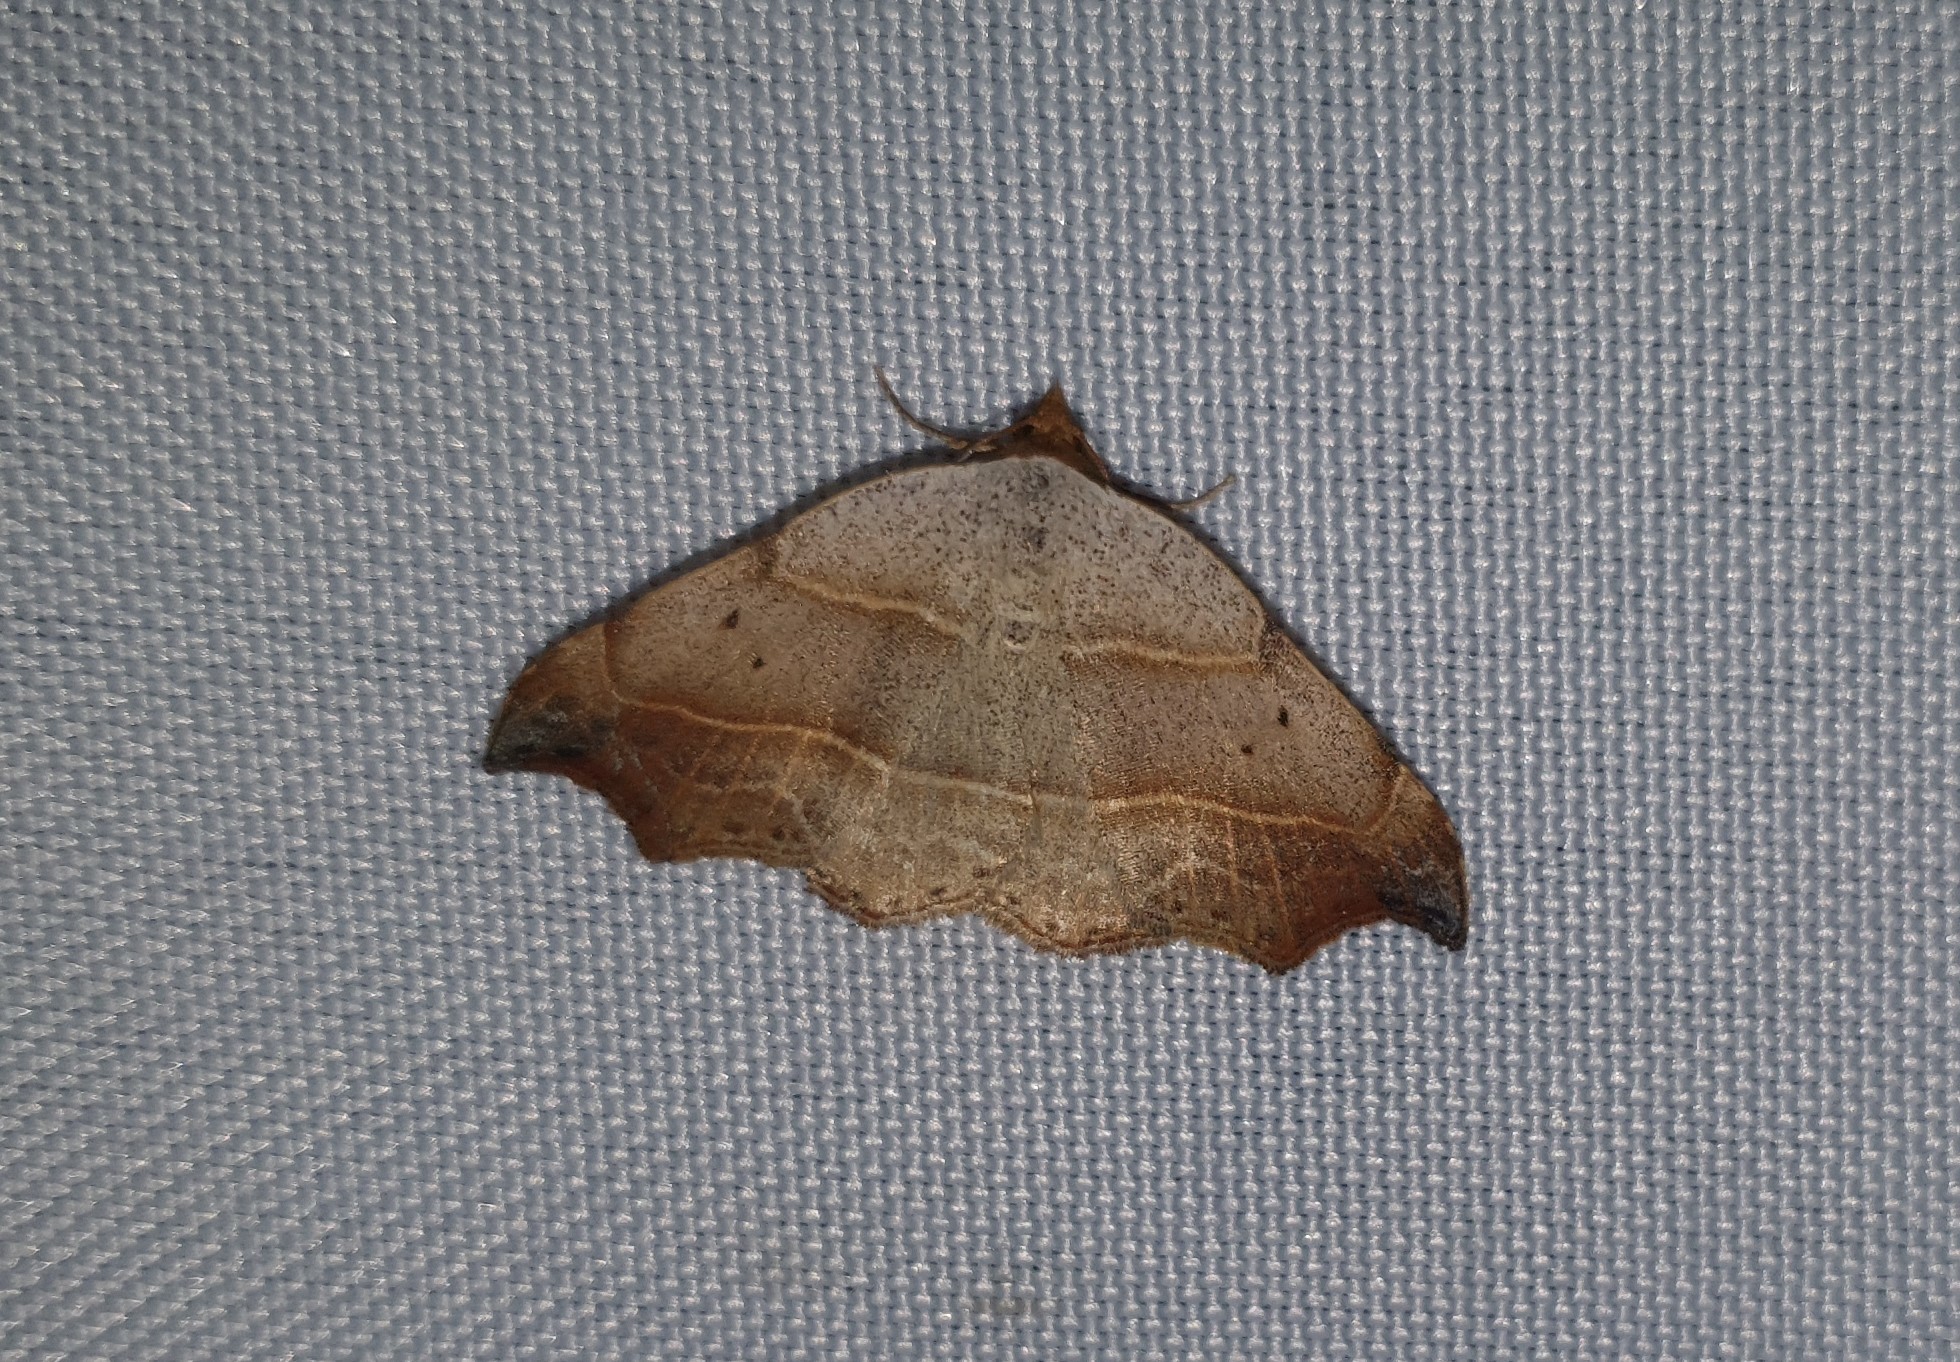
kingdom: Animalia
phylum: Arthropoda
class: Insecta
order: Lepidoptera
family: Erebidae
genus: Laspeyria
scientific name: Laspeyria flexula
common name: Beautiful hook-tip
